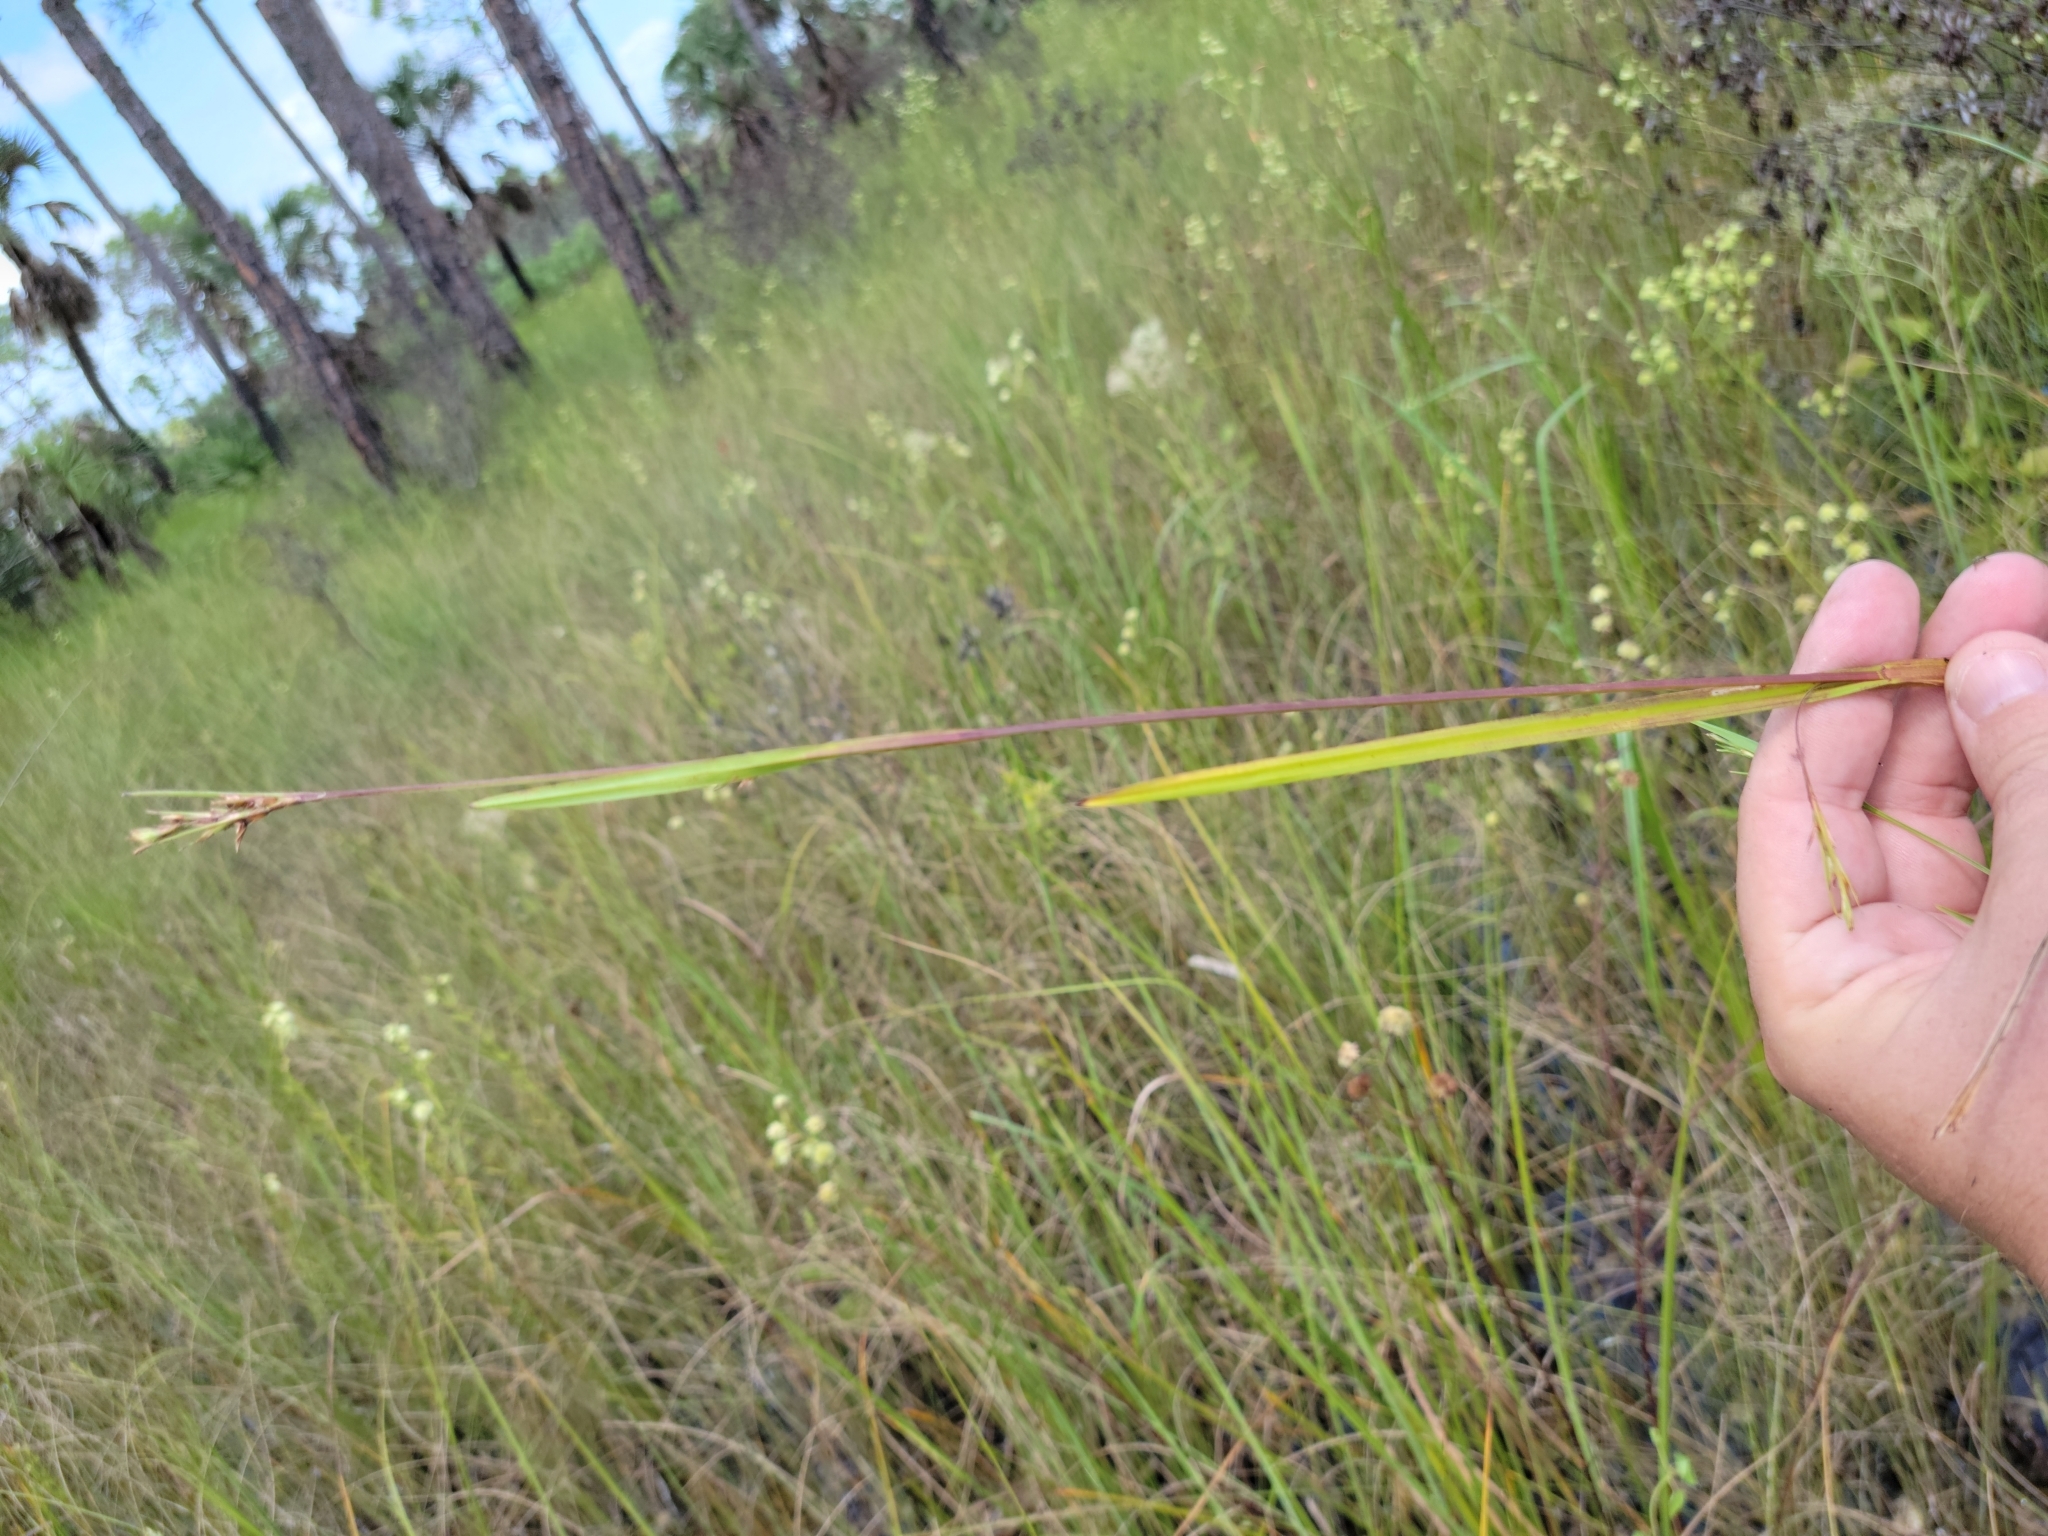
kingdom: Plantae
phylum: Tracheophyta
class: Liliopsida
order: Poales
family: Cyperaceae
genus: Scleria
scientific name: Scleria muehlenbergii
